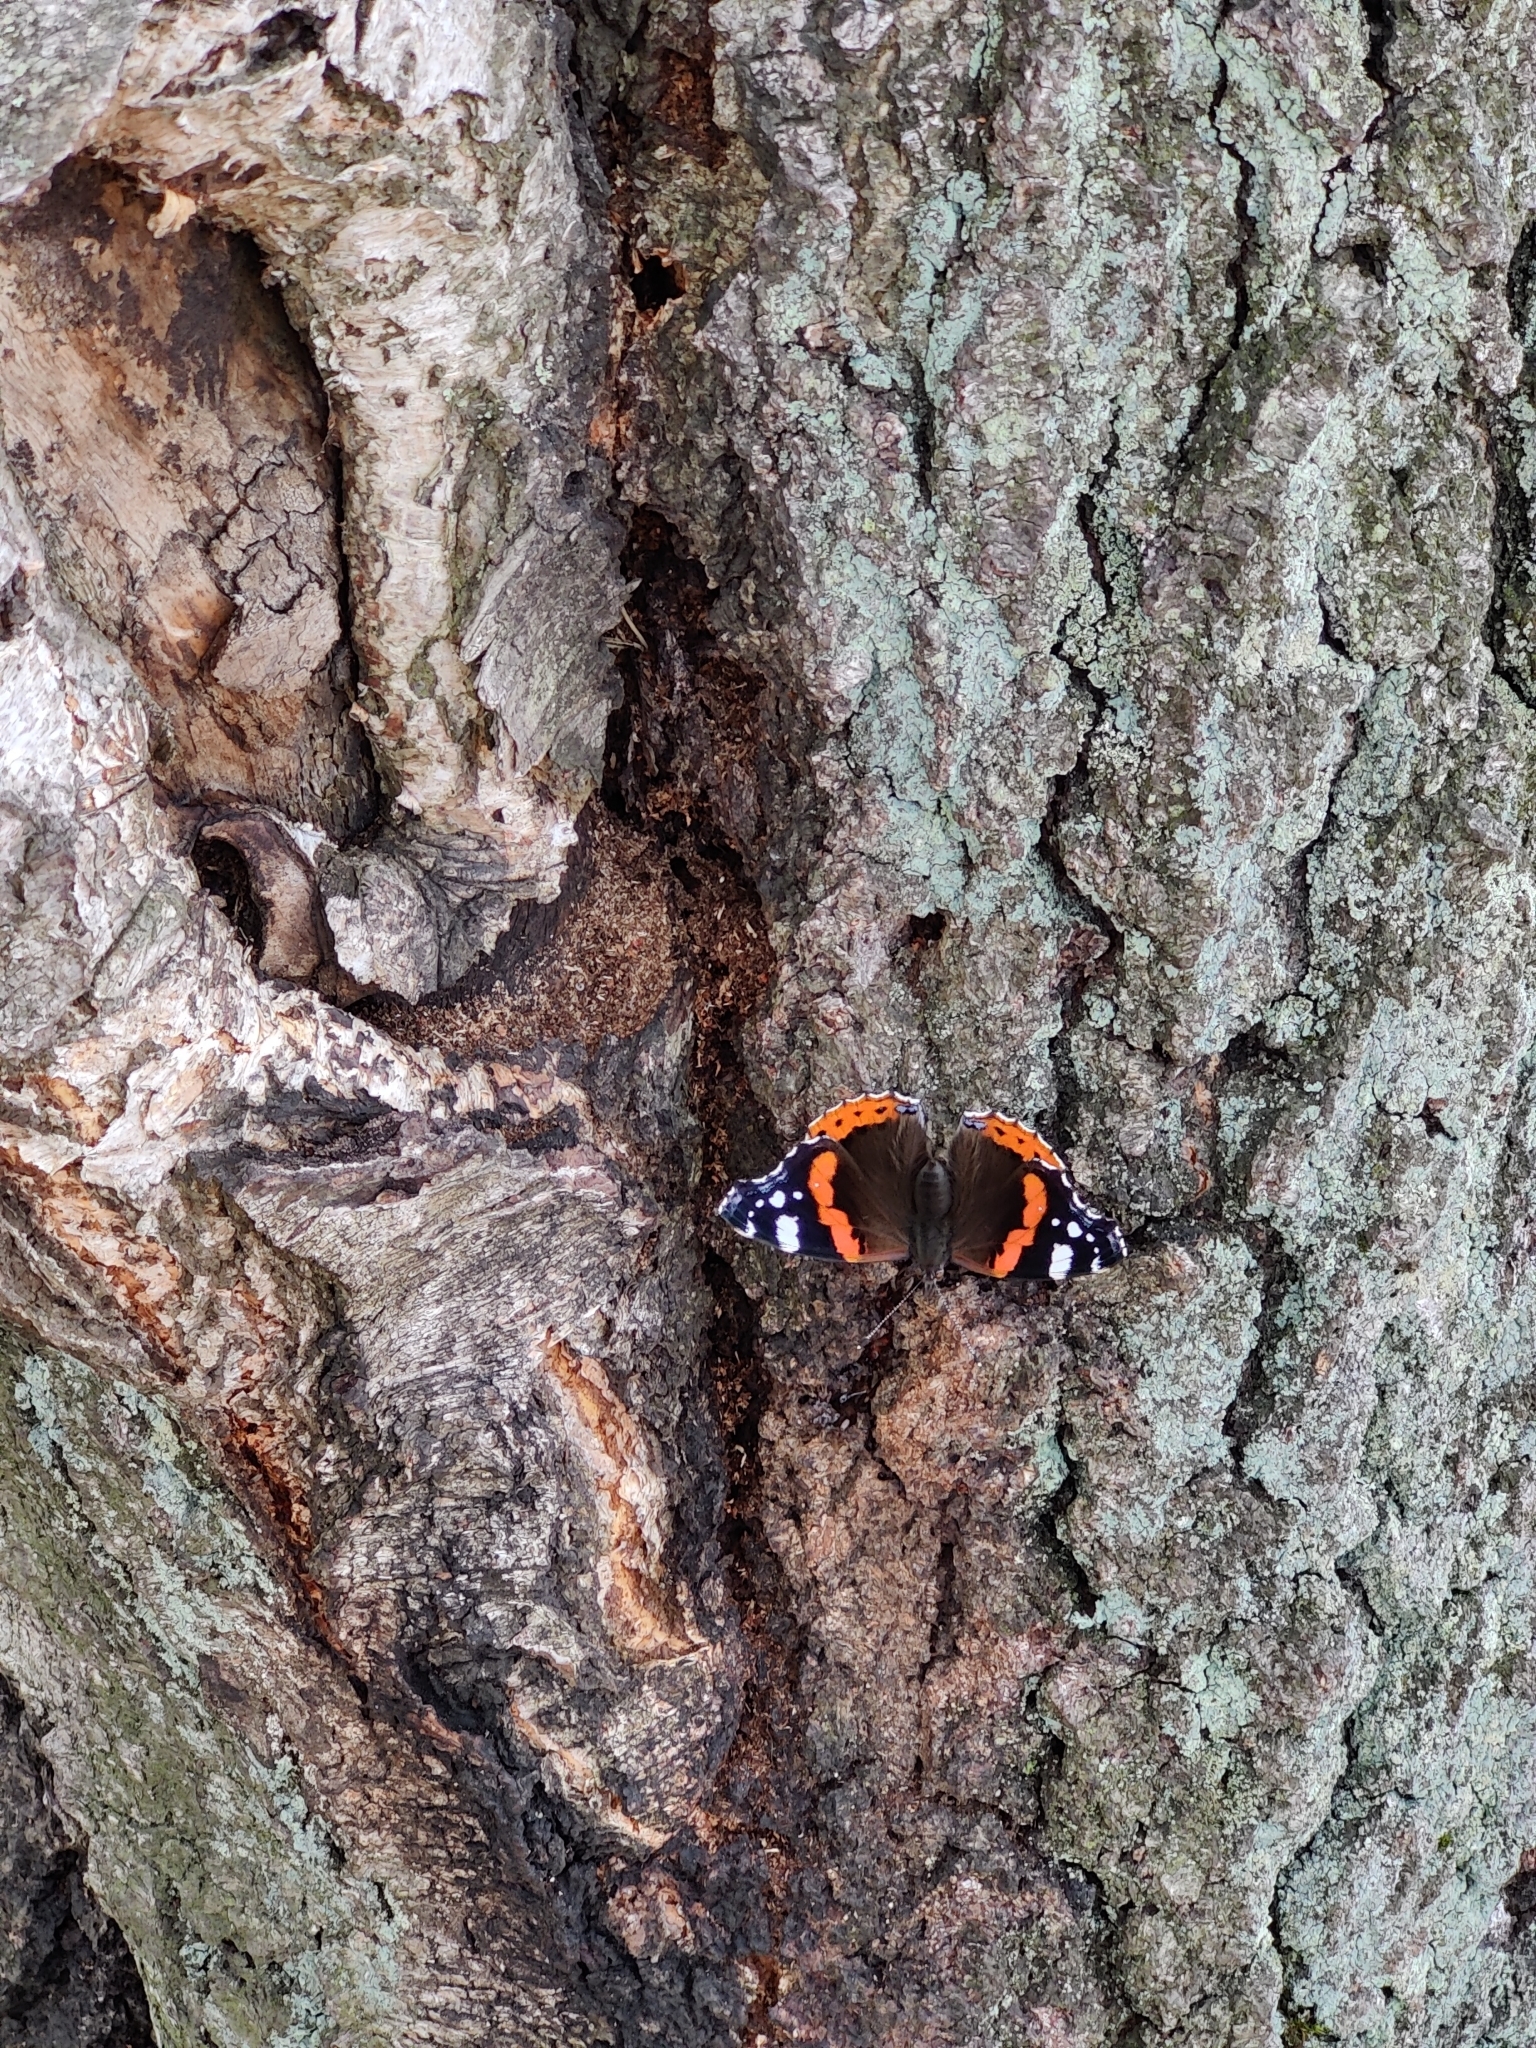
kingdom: Animalia
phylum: Arthropoda
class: Insecta
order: Lepidoptera
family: Nymphalidae
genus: Vanessa
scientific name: Vanessa atalanta
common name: Red admiral
